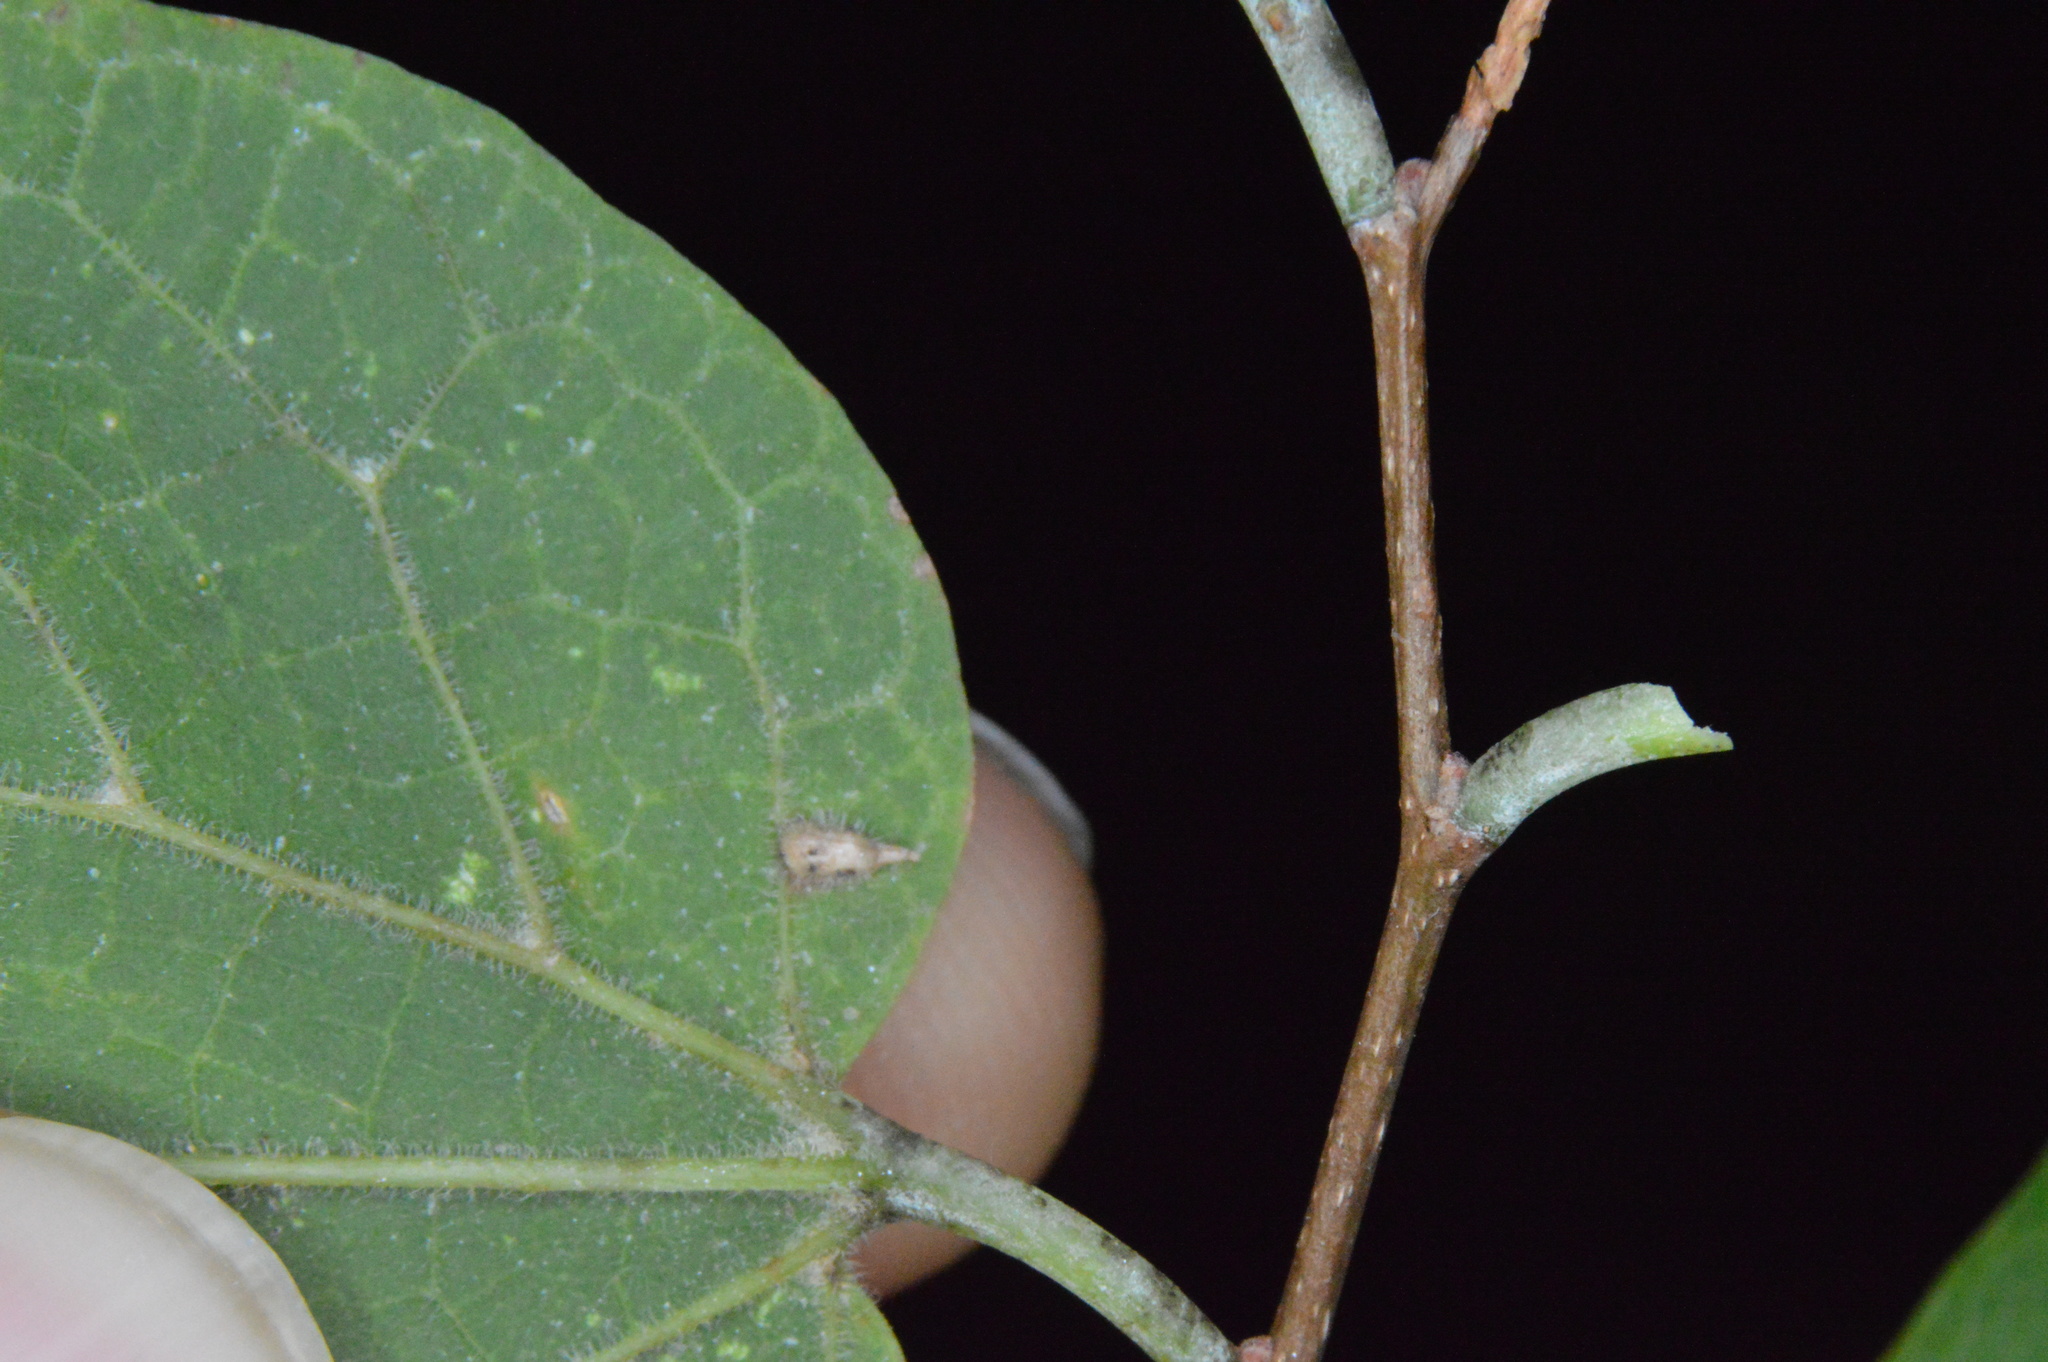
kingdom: Animalia
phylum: Arthropoda
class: Insecta
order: Diptera
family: Cecidomyiidae
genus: Celticecis
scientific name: Celticecis supina
